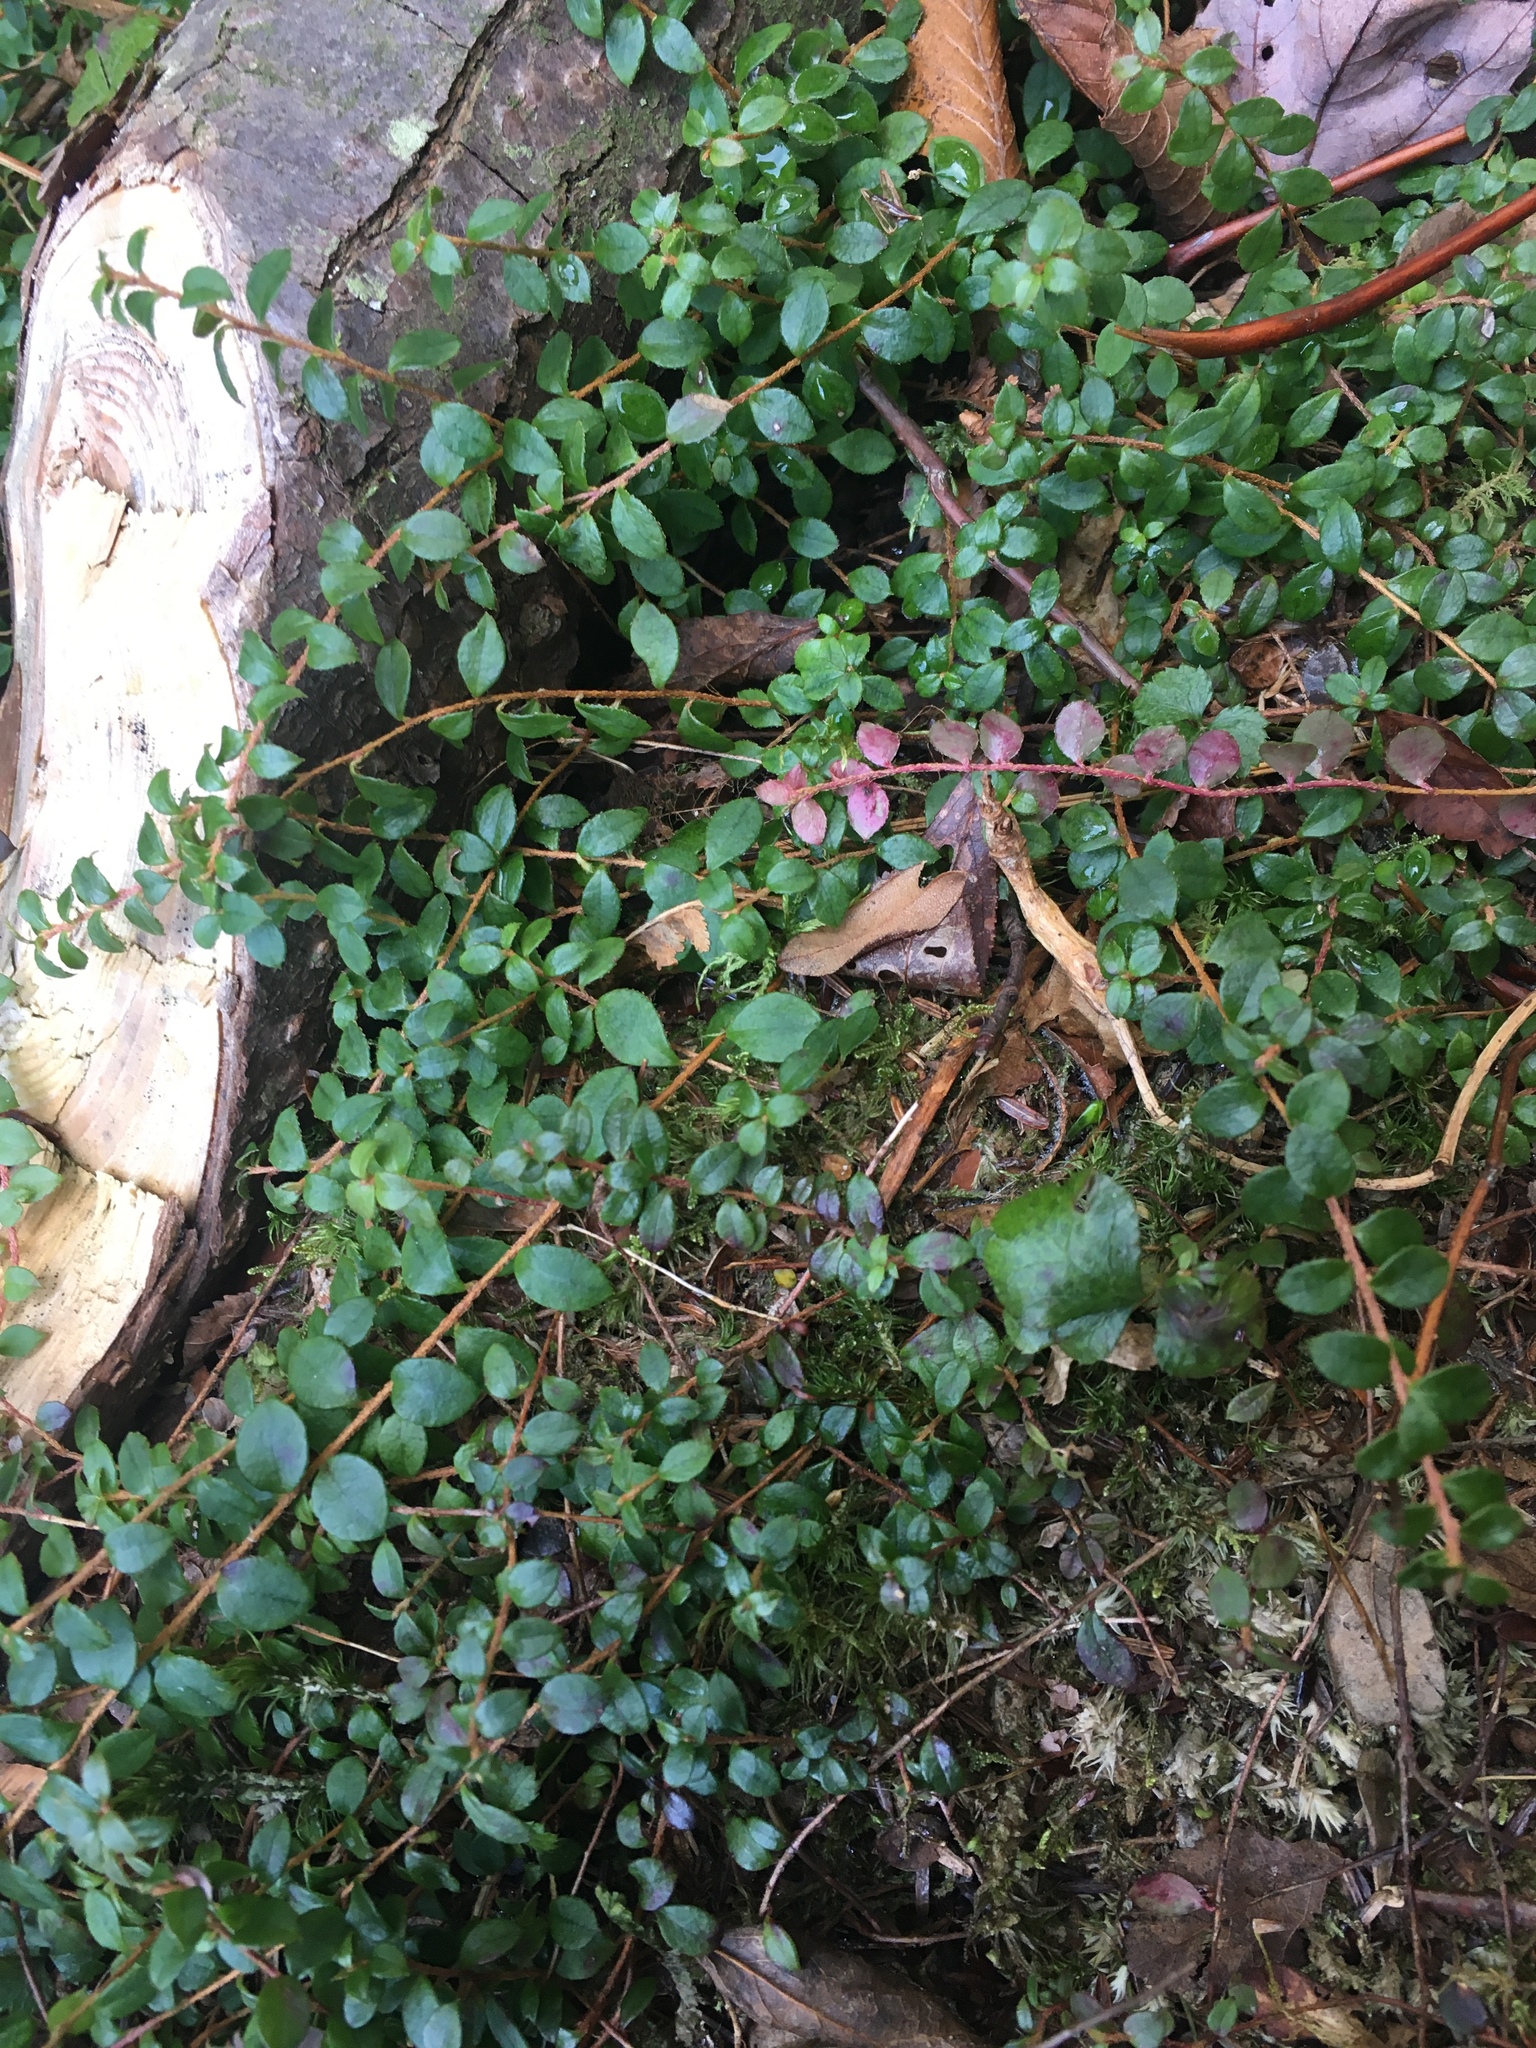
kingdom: Plantae
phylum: Tracheophyta
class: Magnoliopsida
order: Ericales
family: Ericaceae
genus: Gaultheria
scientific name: Gaultheria hispidula
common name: Cancer wintergreen
